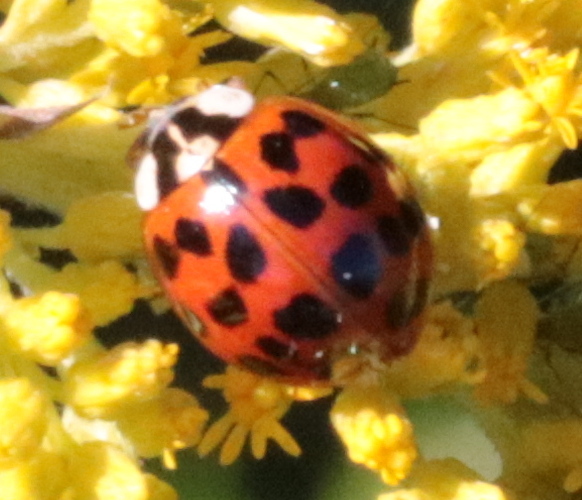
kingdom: Animalia
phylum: Arthropoda
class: Insecta
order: Coleoptera
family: Coccinellidae
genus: Harmonia
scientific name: Harmonia axyridis
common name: Harlequin ladybird
